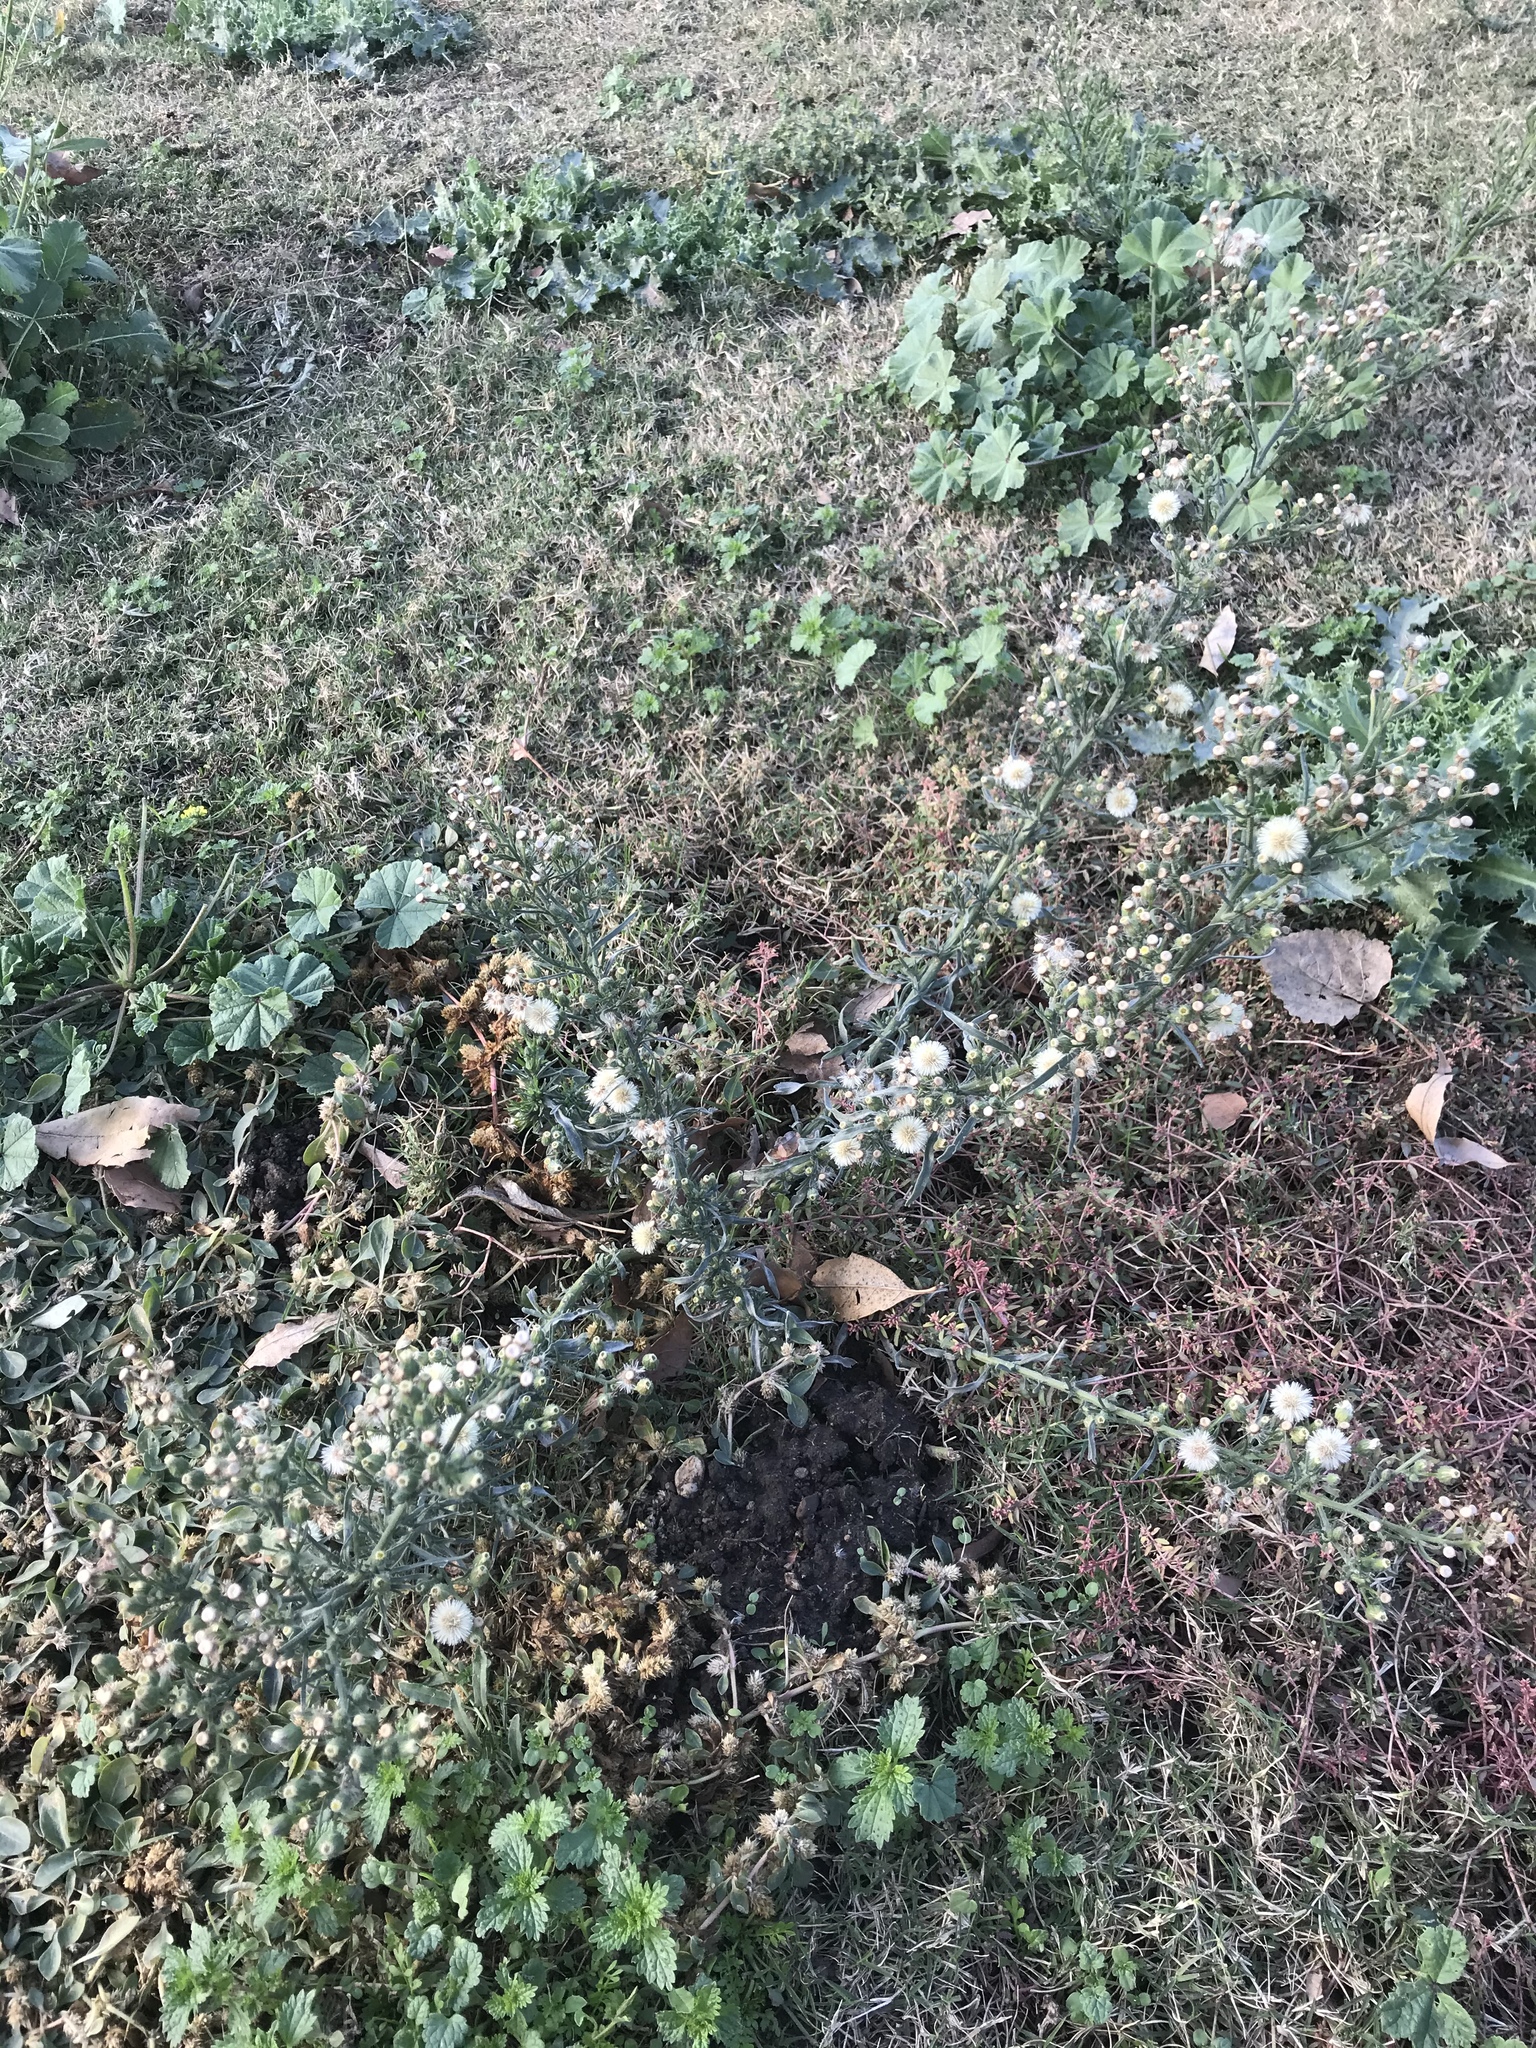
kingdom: Plantae
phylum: Tracheophyta
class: Magnoliopsida
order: Asterales
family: Asteraceae
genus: Erigeron
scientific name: Erigeron bonariensis
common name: Argentine fleabane
